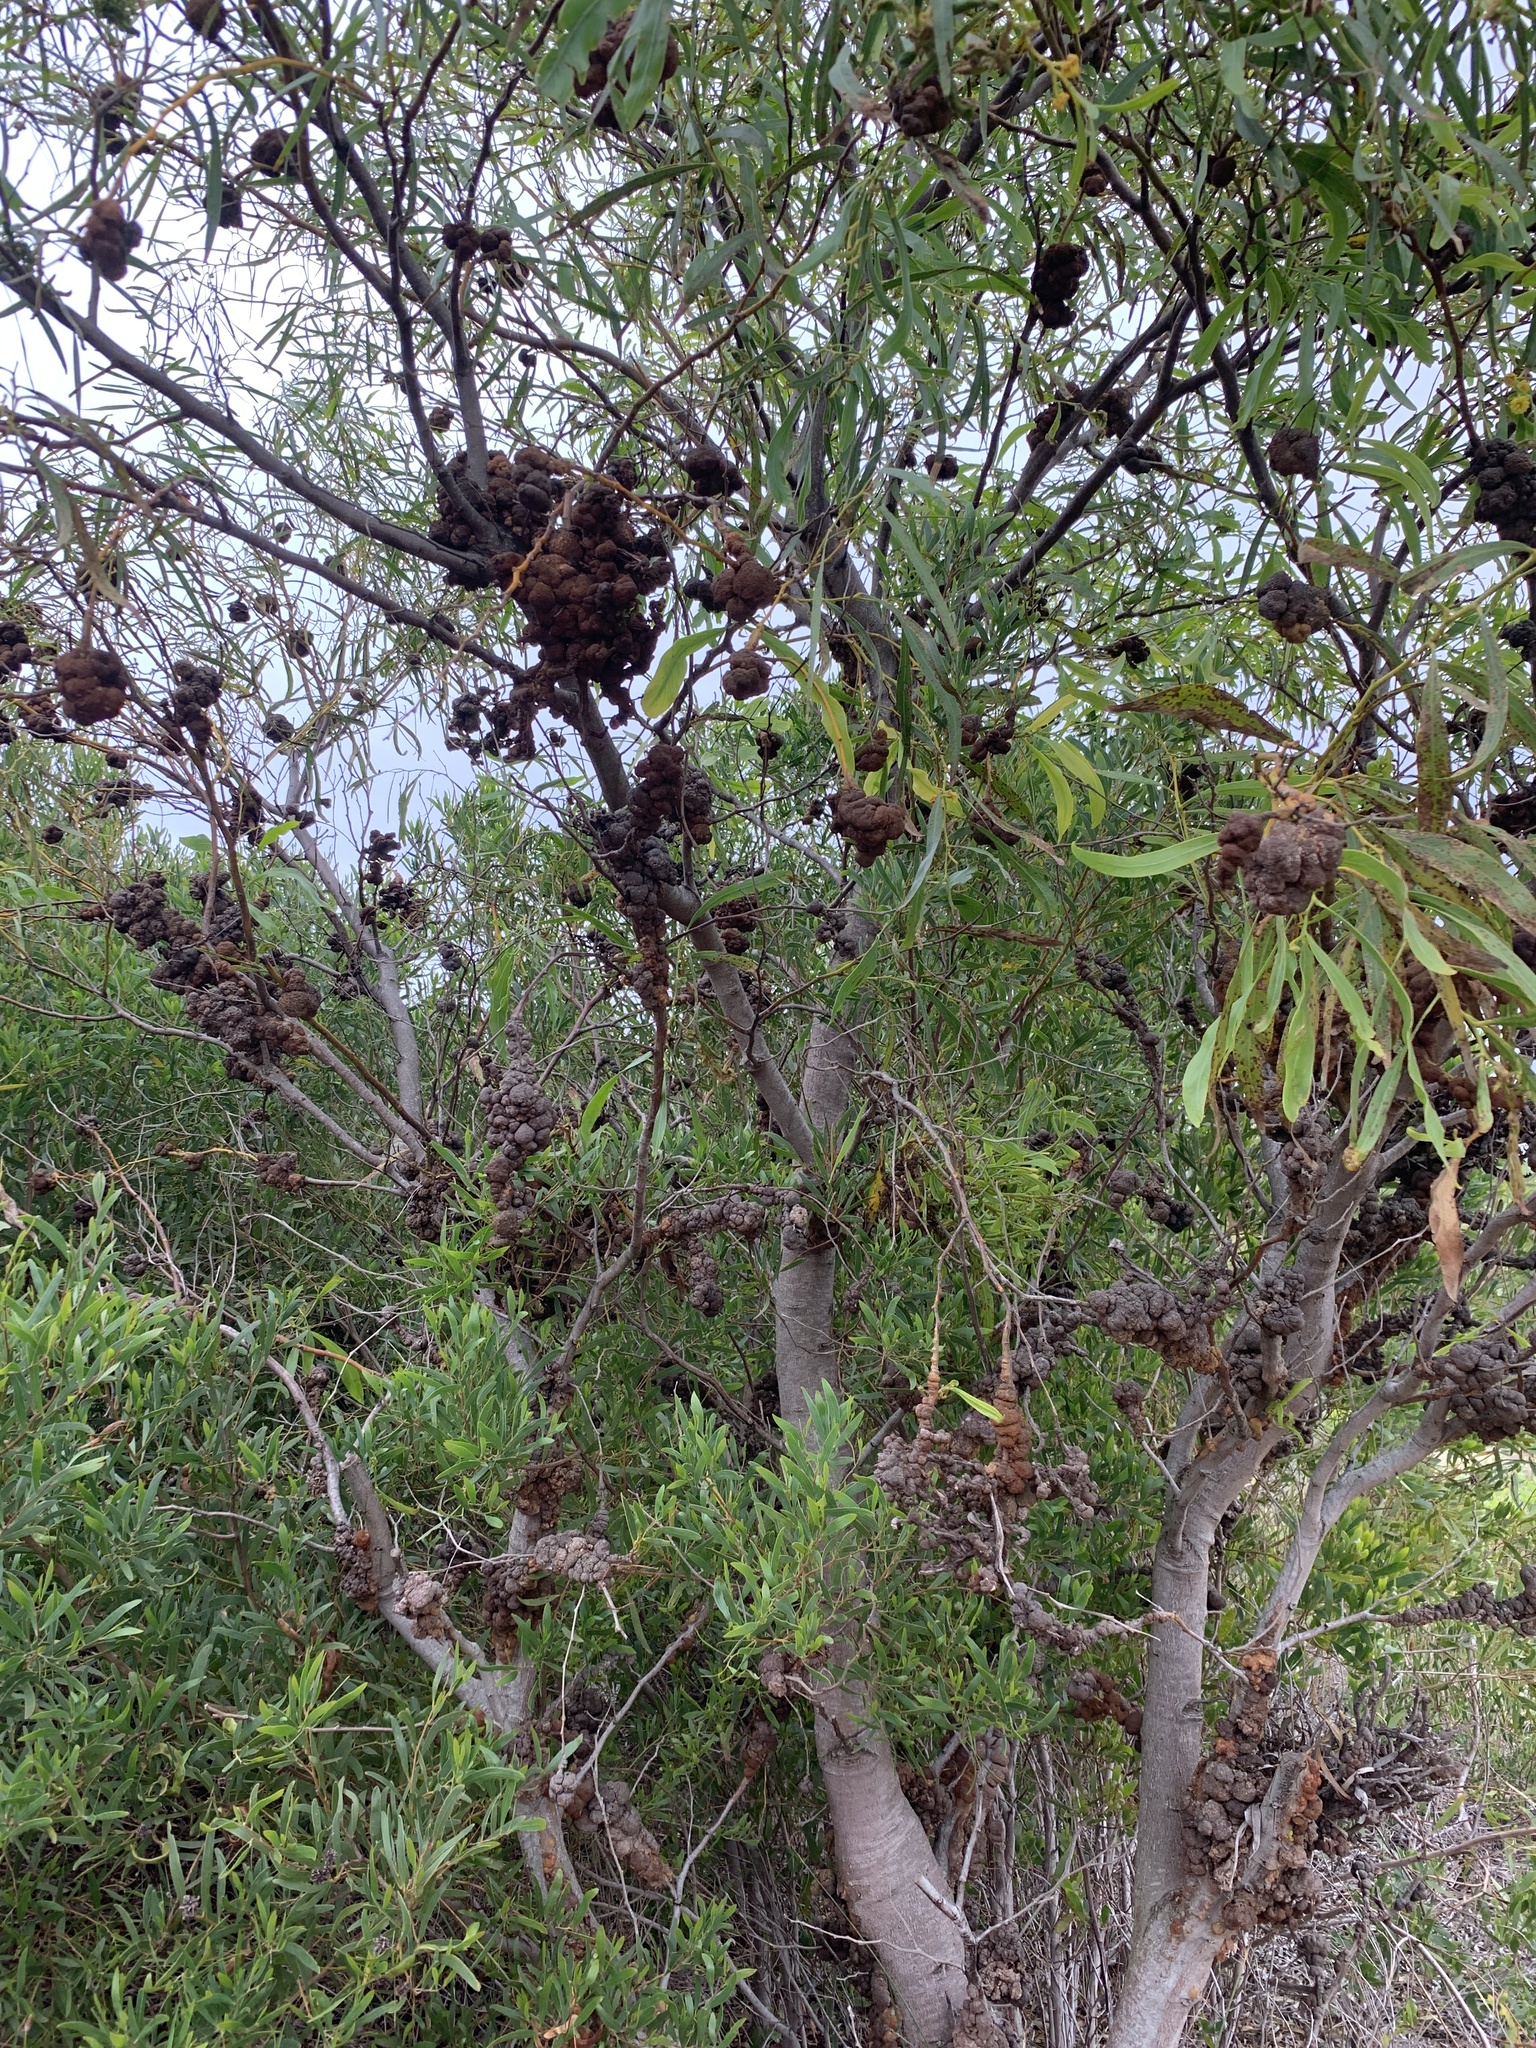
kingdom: Plantae
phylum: Tracheophyta
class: Magnoliopsida
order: Fabales
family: Fabaceae
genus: Acacia
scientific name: Acacia saligna
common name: Orange wattle
